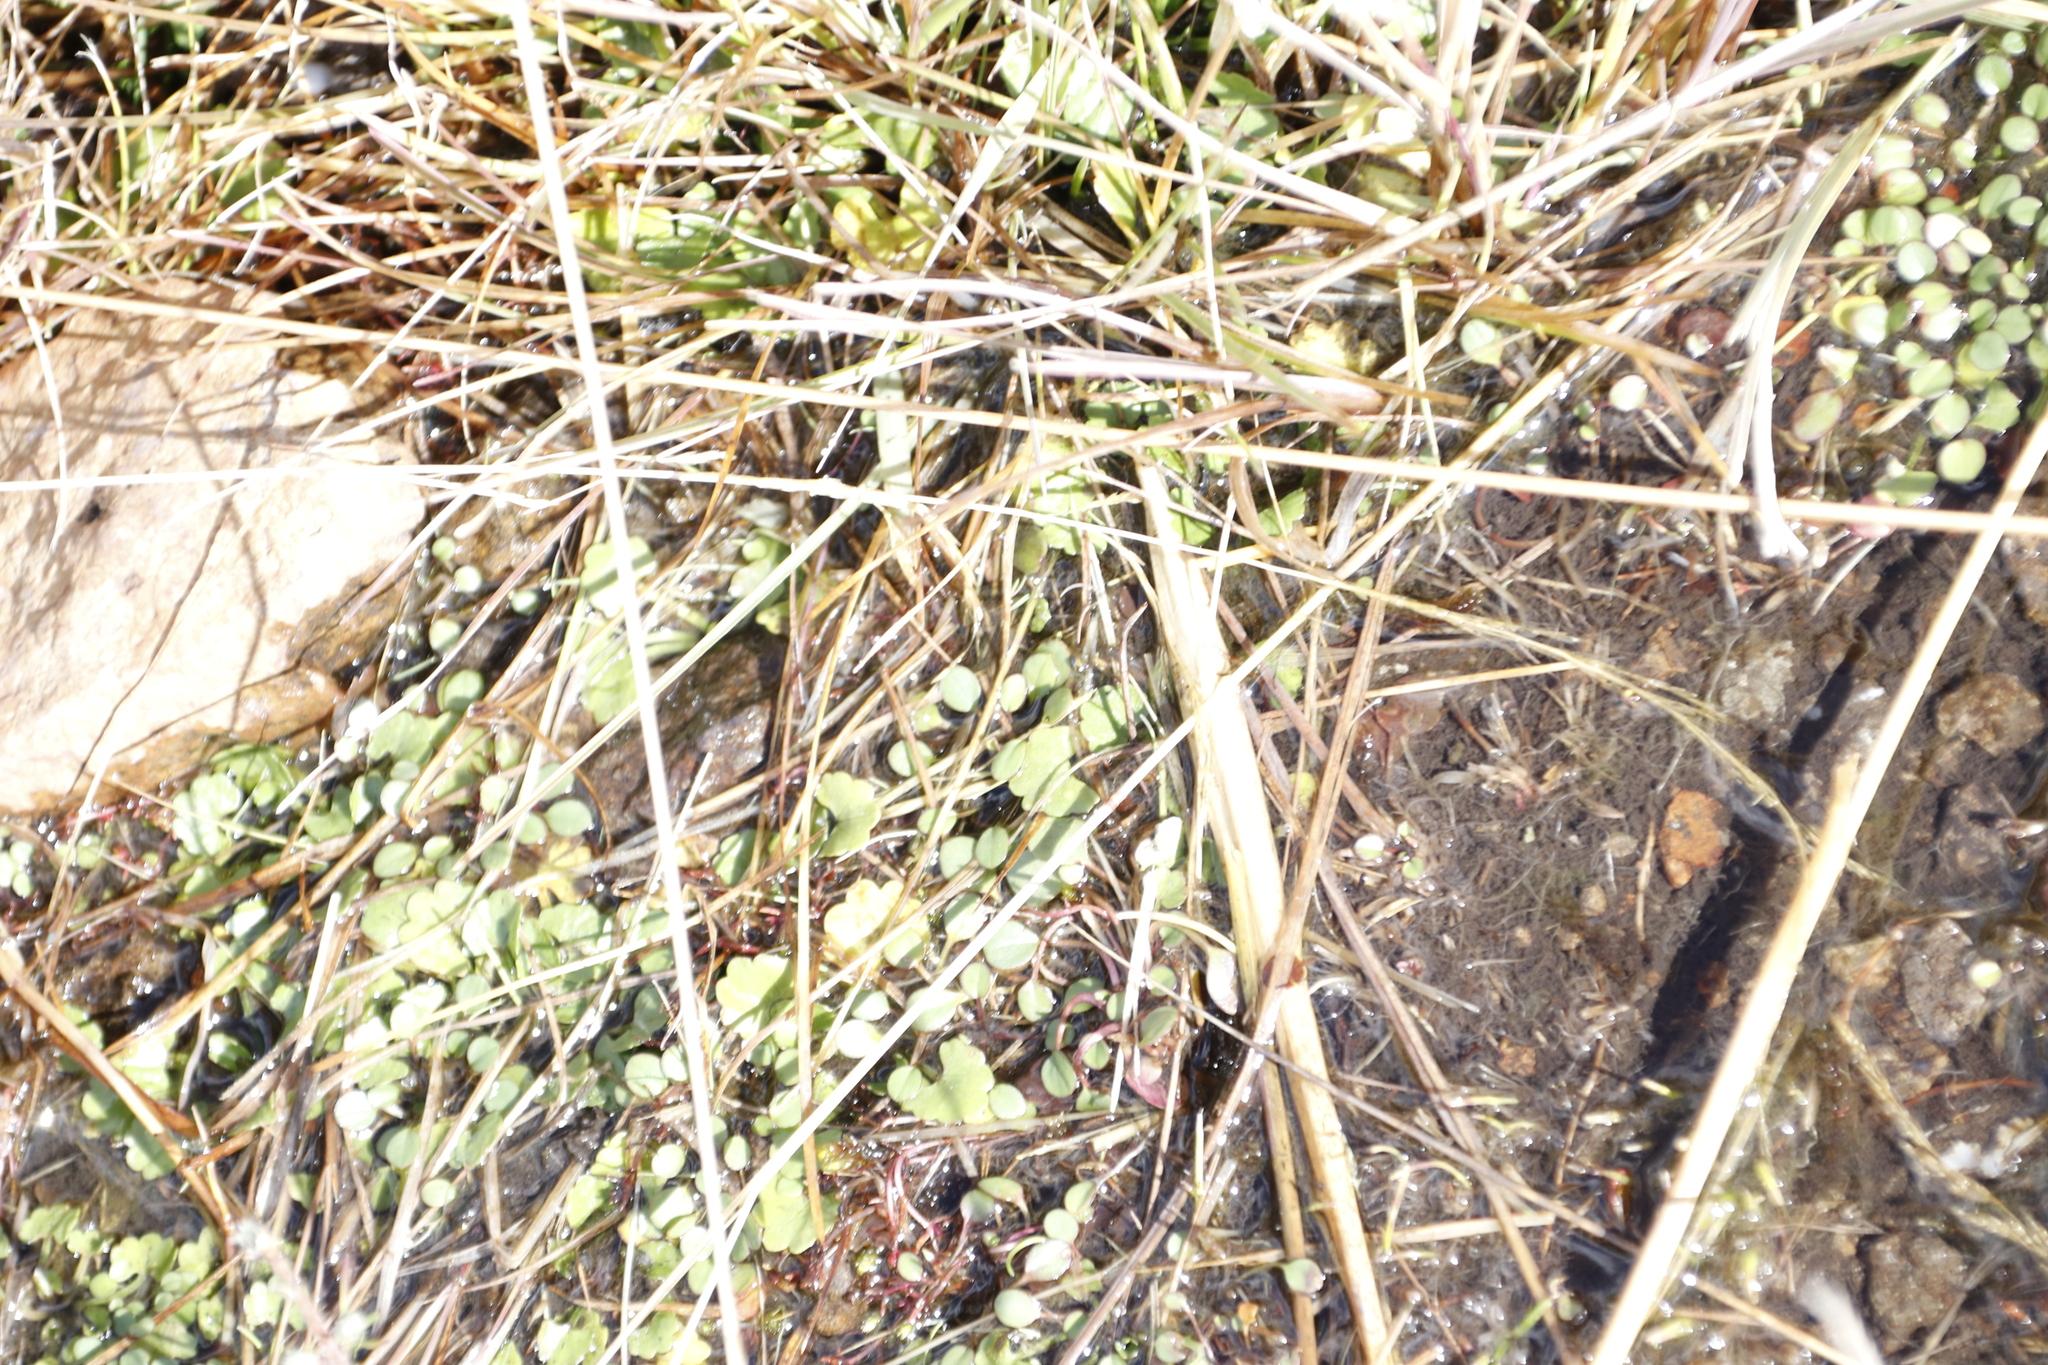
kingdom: Plantae
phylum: Tracheophyta
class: Magnoliopsida
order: Lamiales
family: Scrophulariaceae
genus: Limosella
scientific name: Limosella vesiculosa
